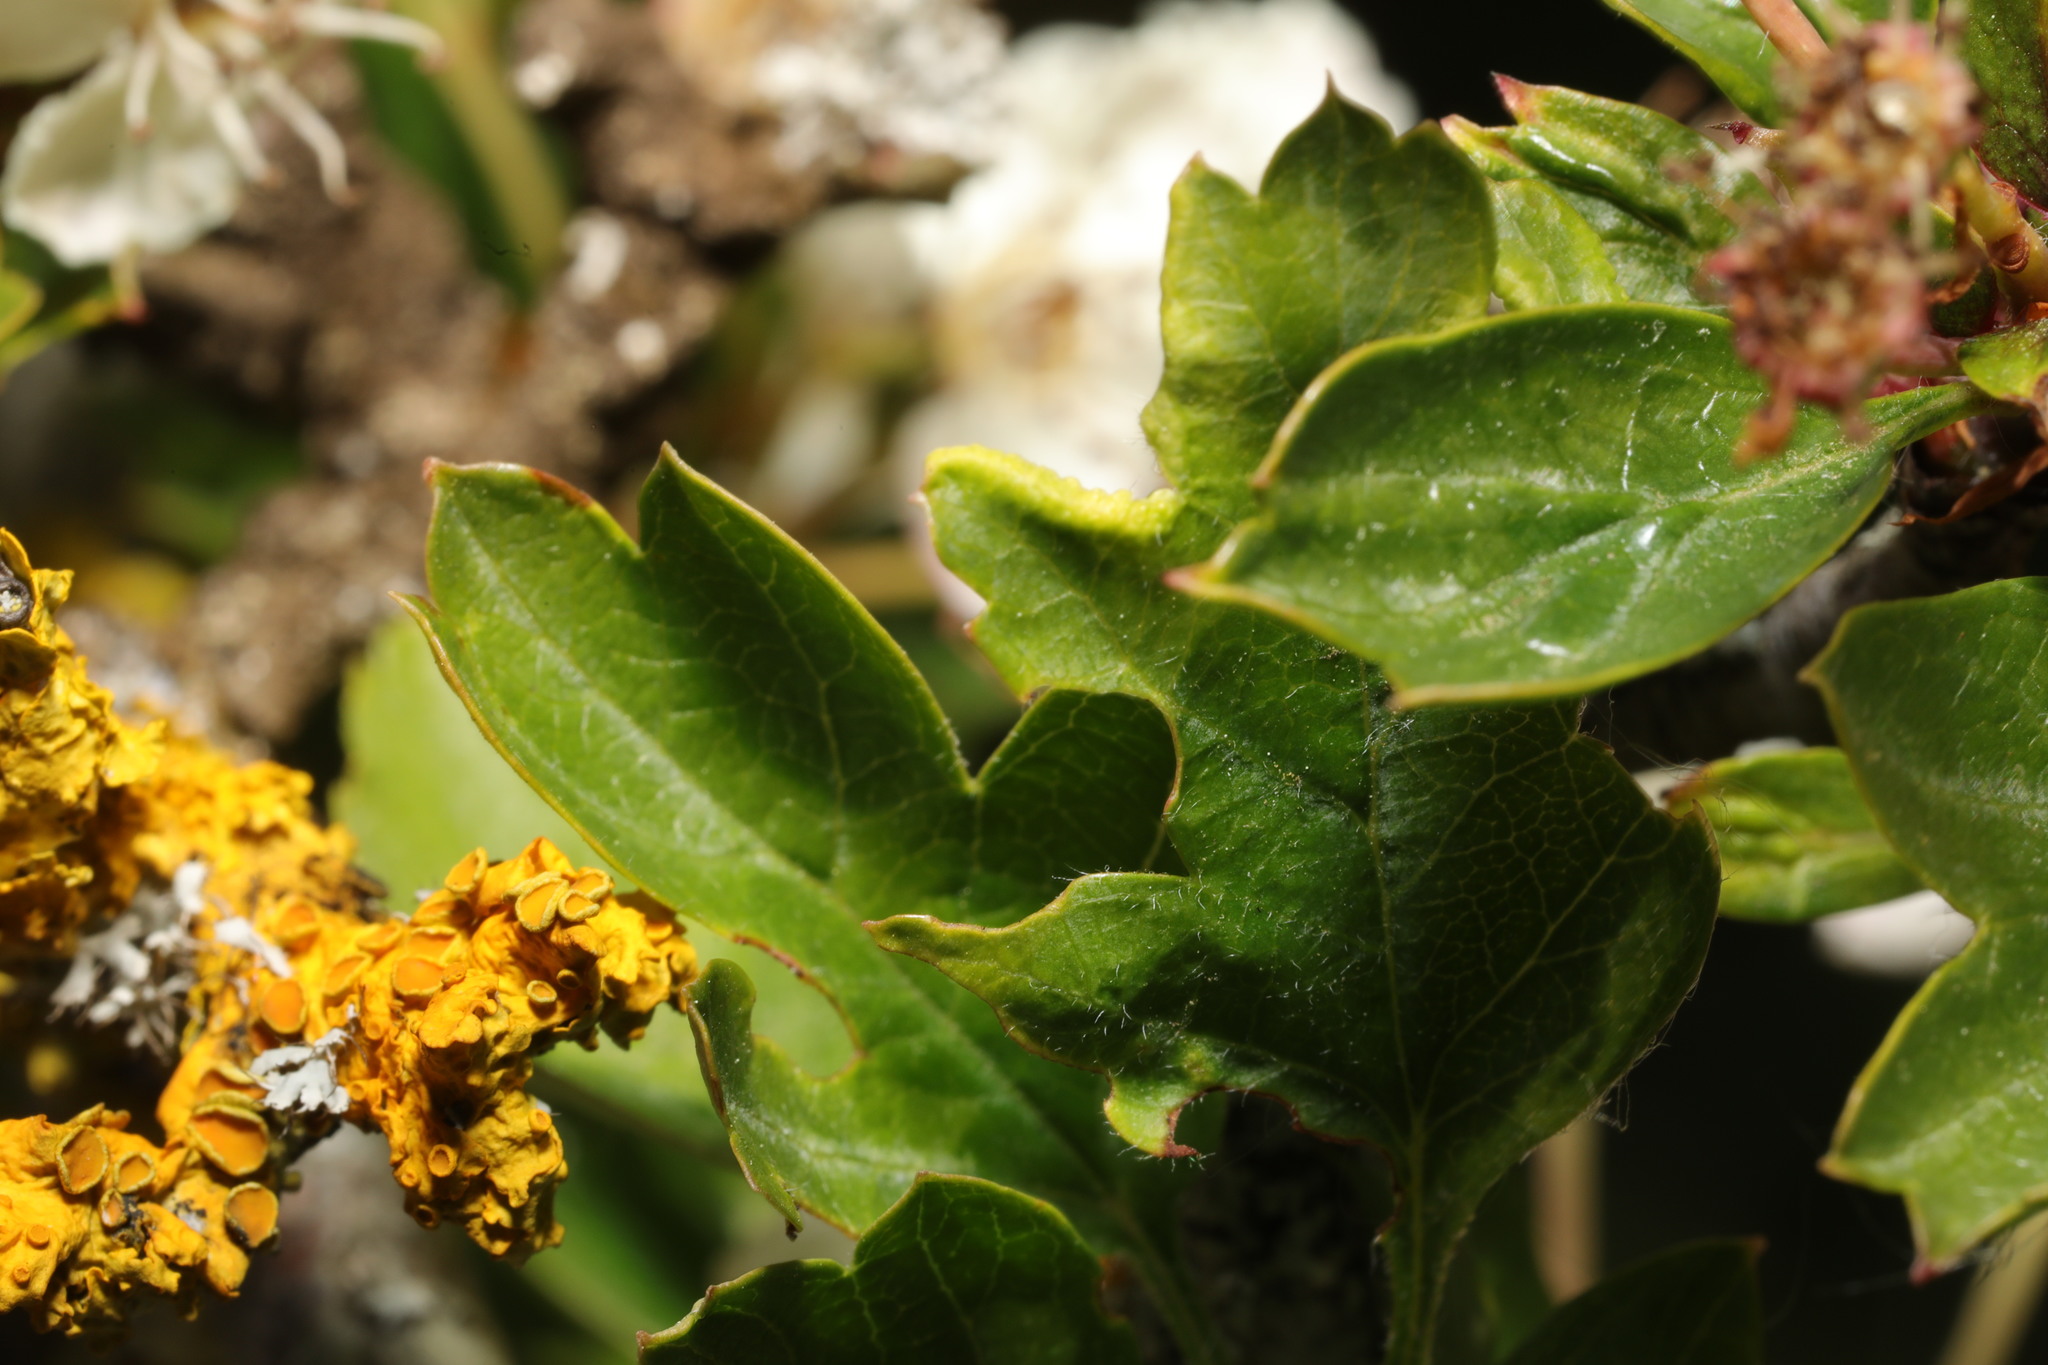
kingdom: Animalia
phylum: Arthropoda
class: Arachnida
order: Trombidiformes
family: Eriophyidae
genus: Phyllocoptes
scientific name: Phyllocoptes goniothorax
